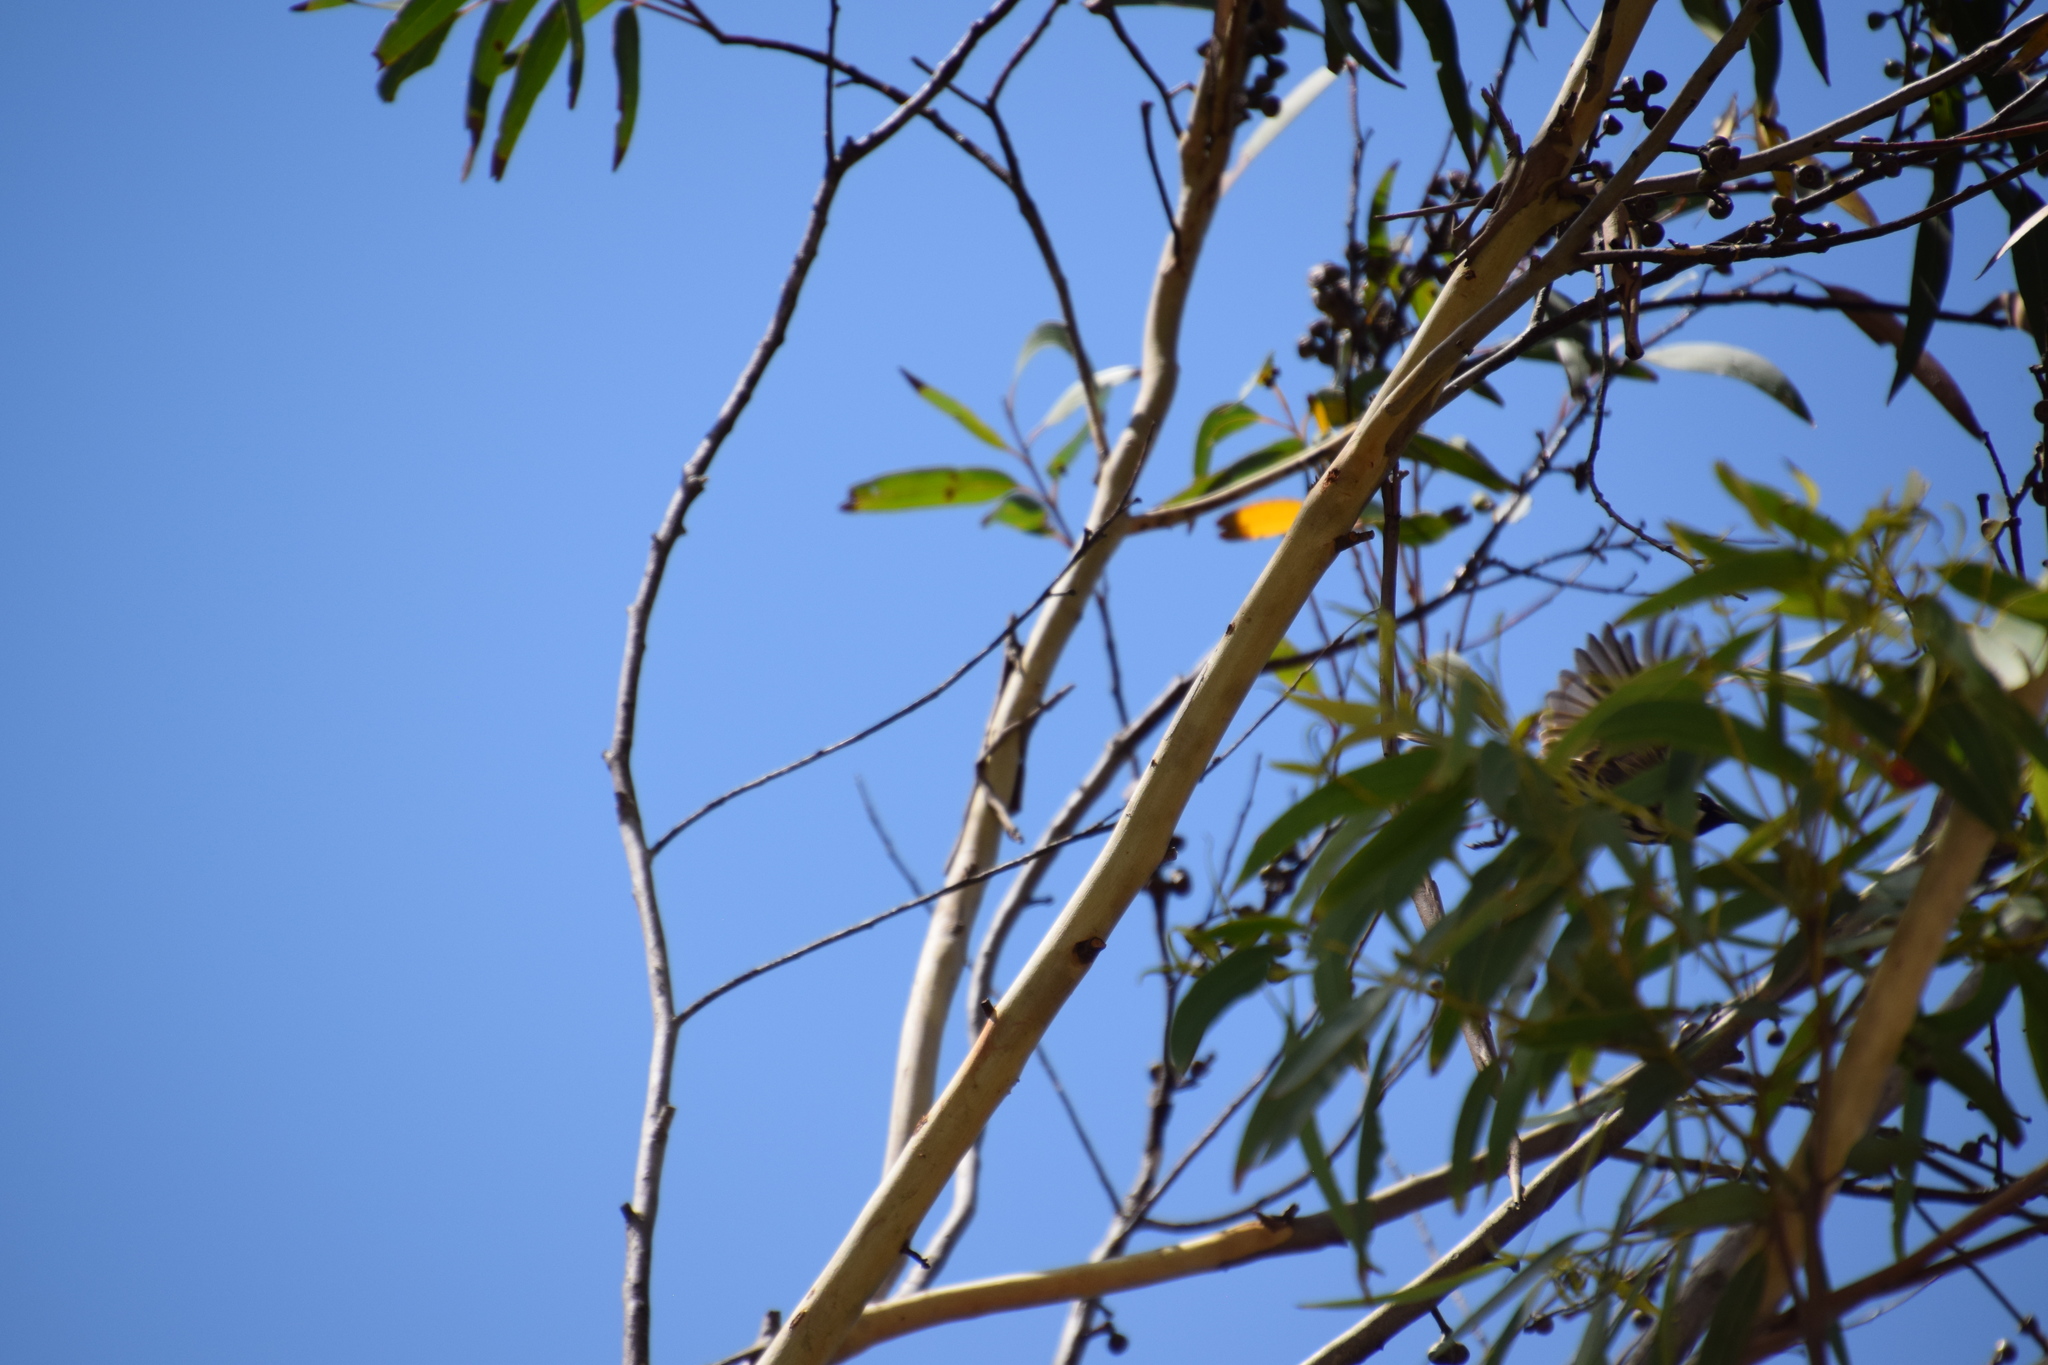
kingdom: Animalia
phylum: Chordata
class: Aves
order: Passeriformes
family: Meliphagidae
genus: Phylidonyris
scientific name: Phylidonyris niger
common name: White-cheeked honeyeater
